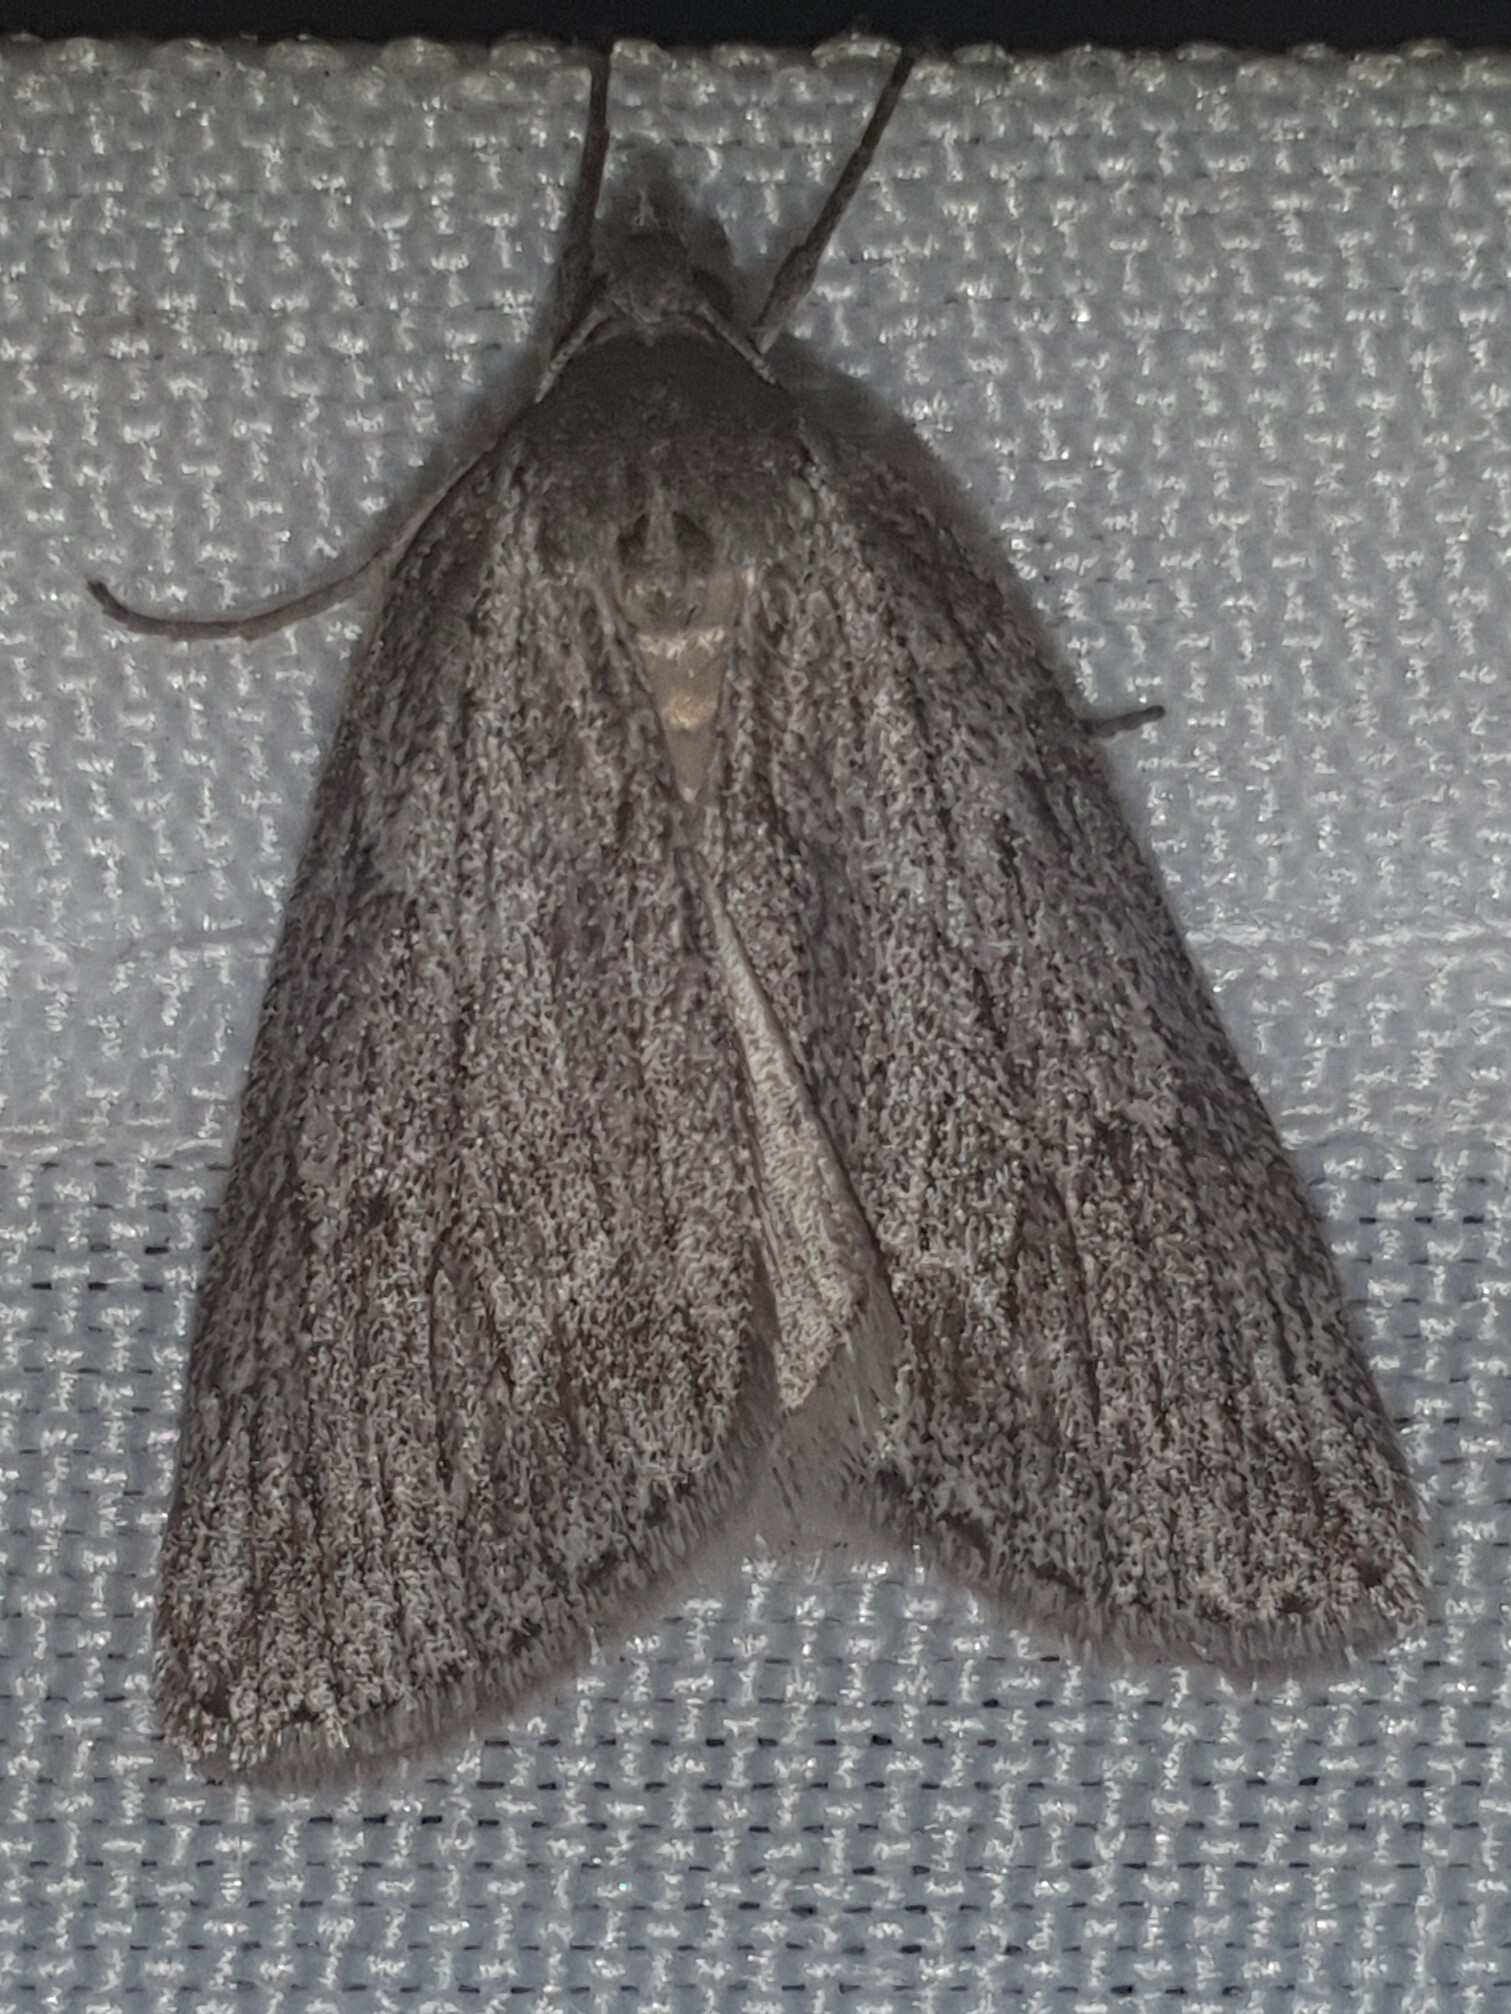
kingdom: Animalia
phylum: Arthropoda
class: Insecta
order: Lepidoptera
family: Geometridae
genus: Pachycnemia
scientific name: Pachycnemia hippocastanaria
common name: Horse chestnut
